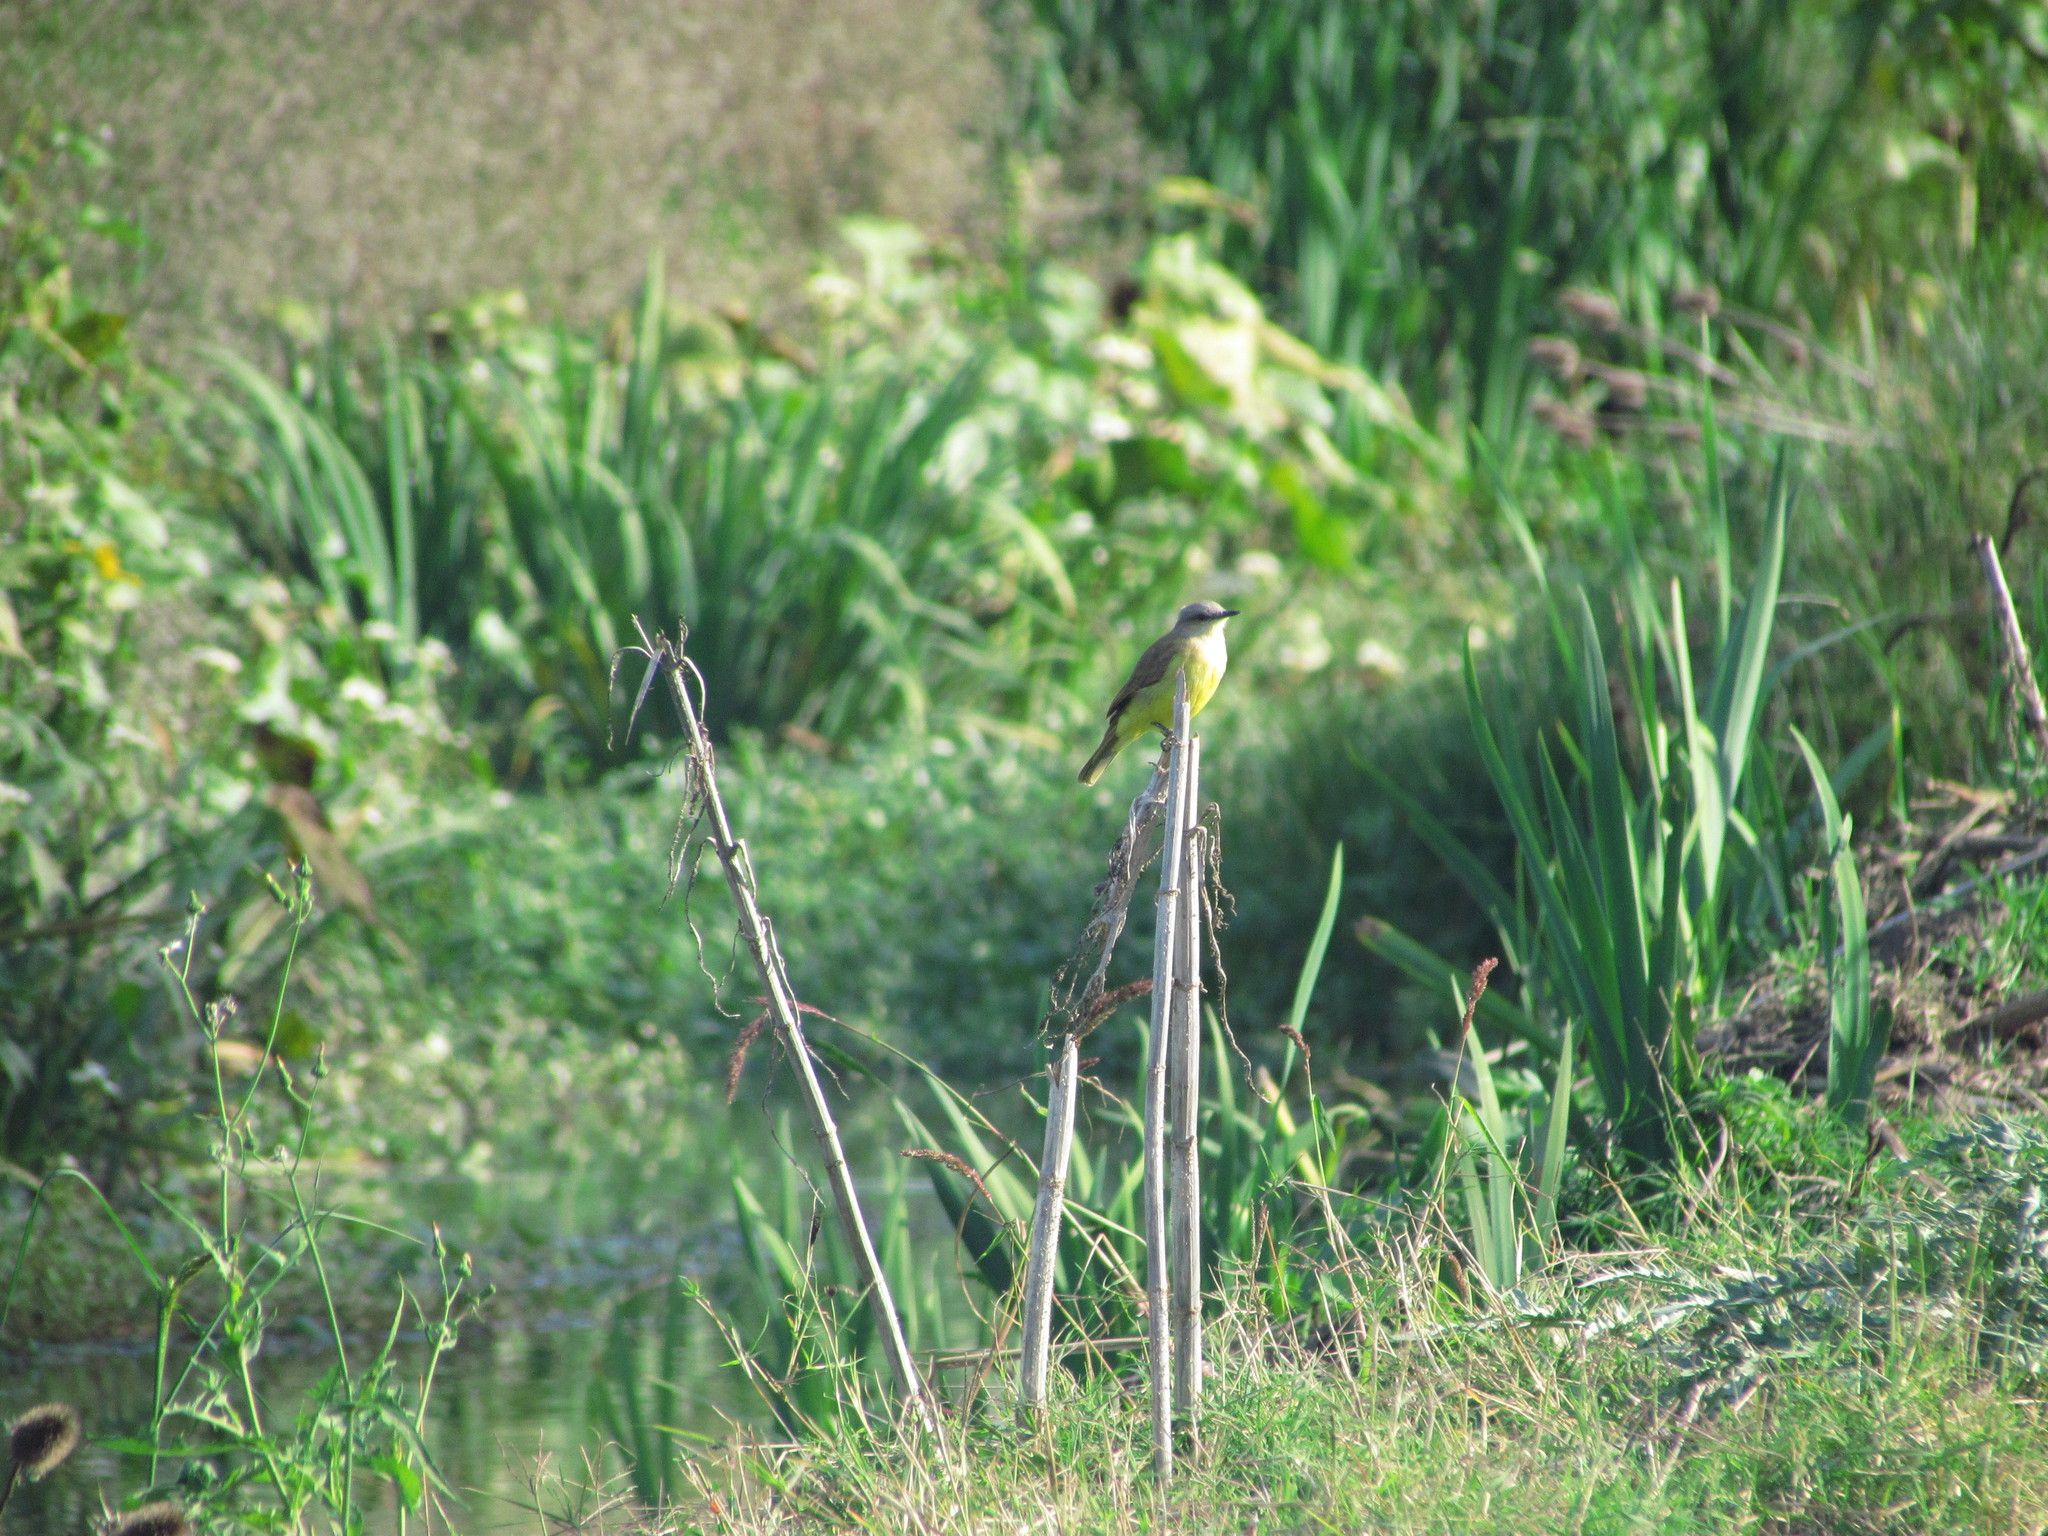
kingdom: Animalia
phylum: Chordata
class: Aves
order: Passeriformes
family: Tyrannidae
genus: Machetornis
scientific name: Machetornis rixosa
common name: Cattle tyrant
